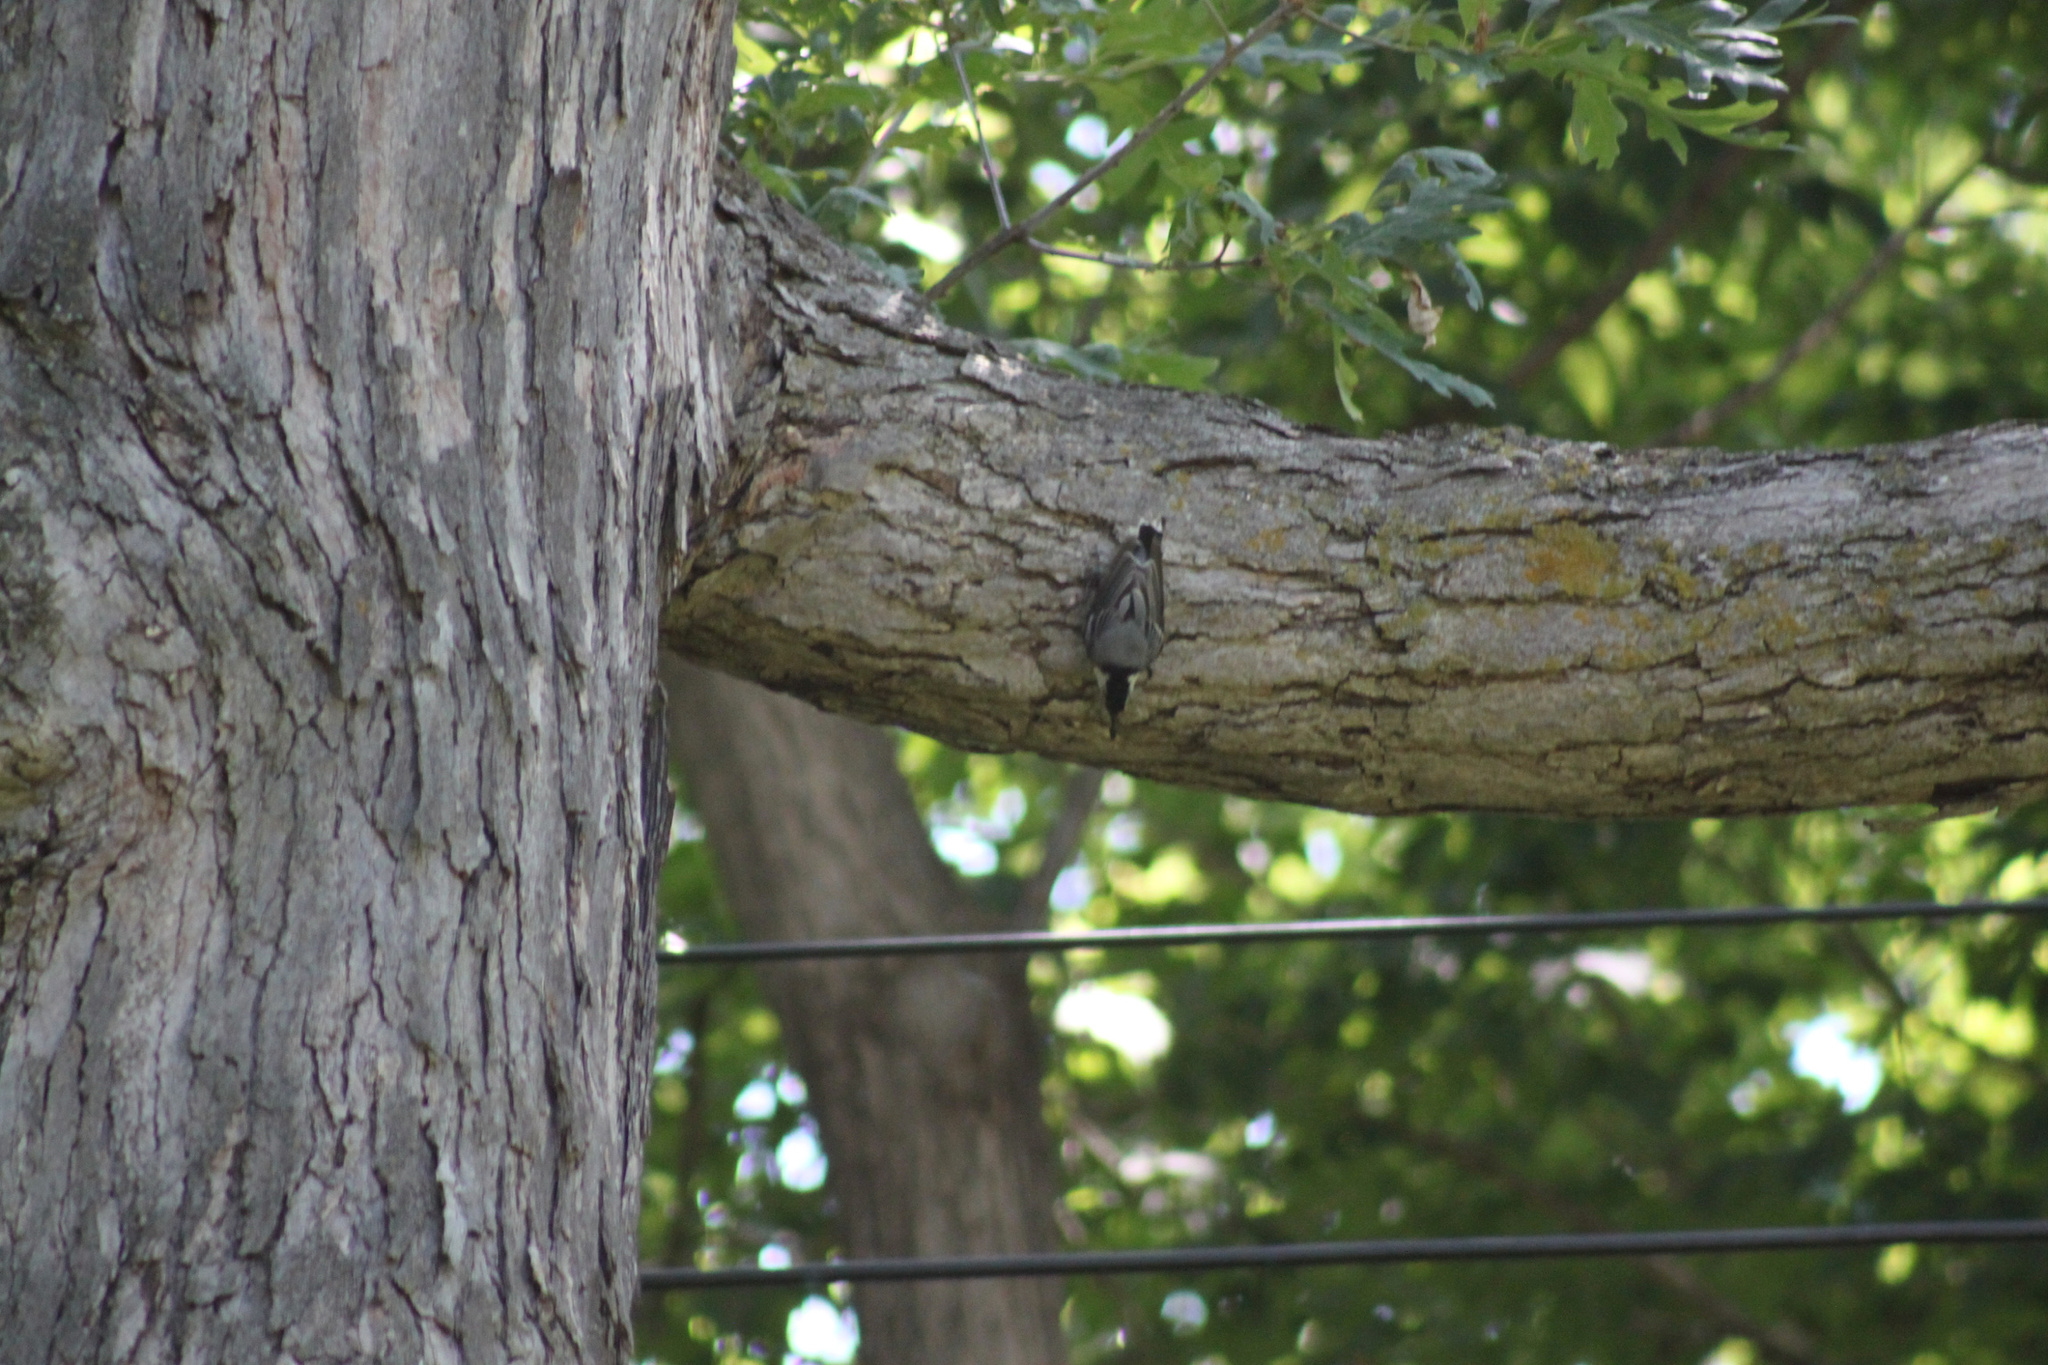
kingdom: Animalia
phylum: Chordata
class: Aves
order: Passeriformes
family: Sittidae
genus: Sitta
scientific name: Sitta carolinensis
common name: White-breasted nuthatch
